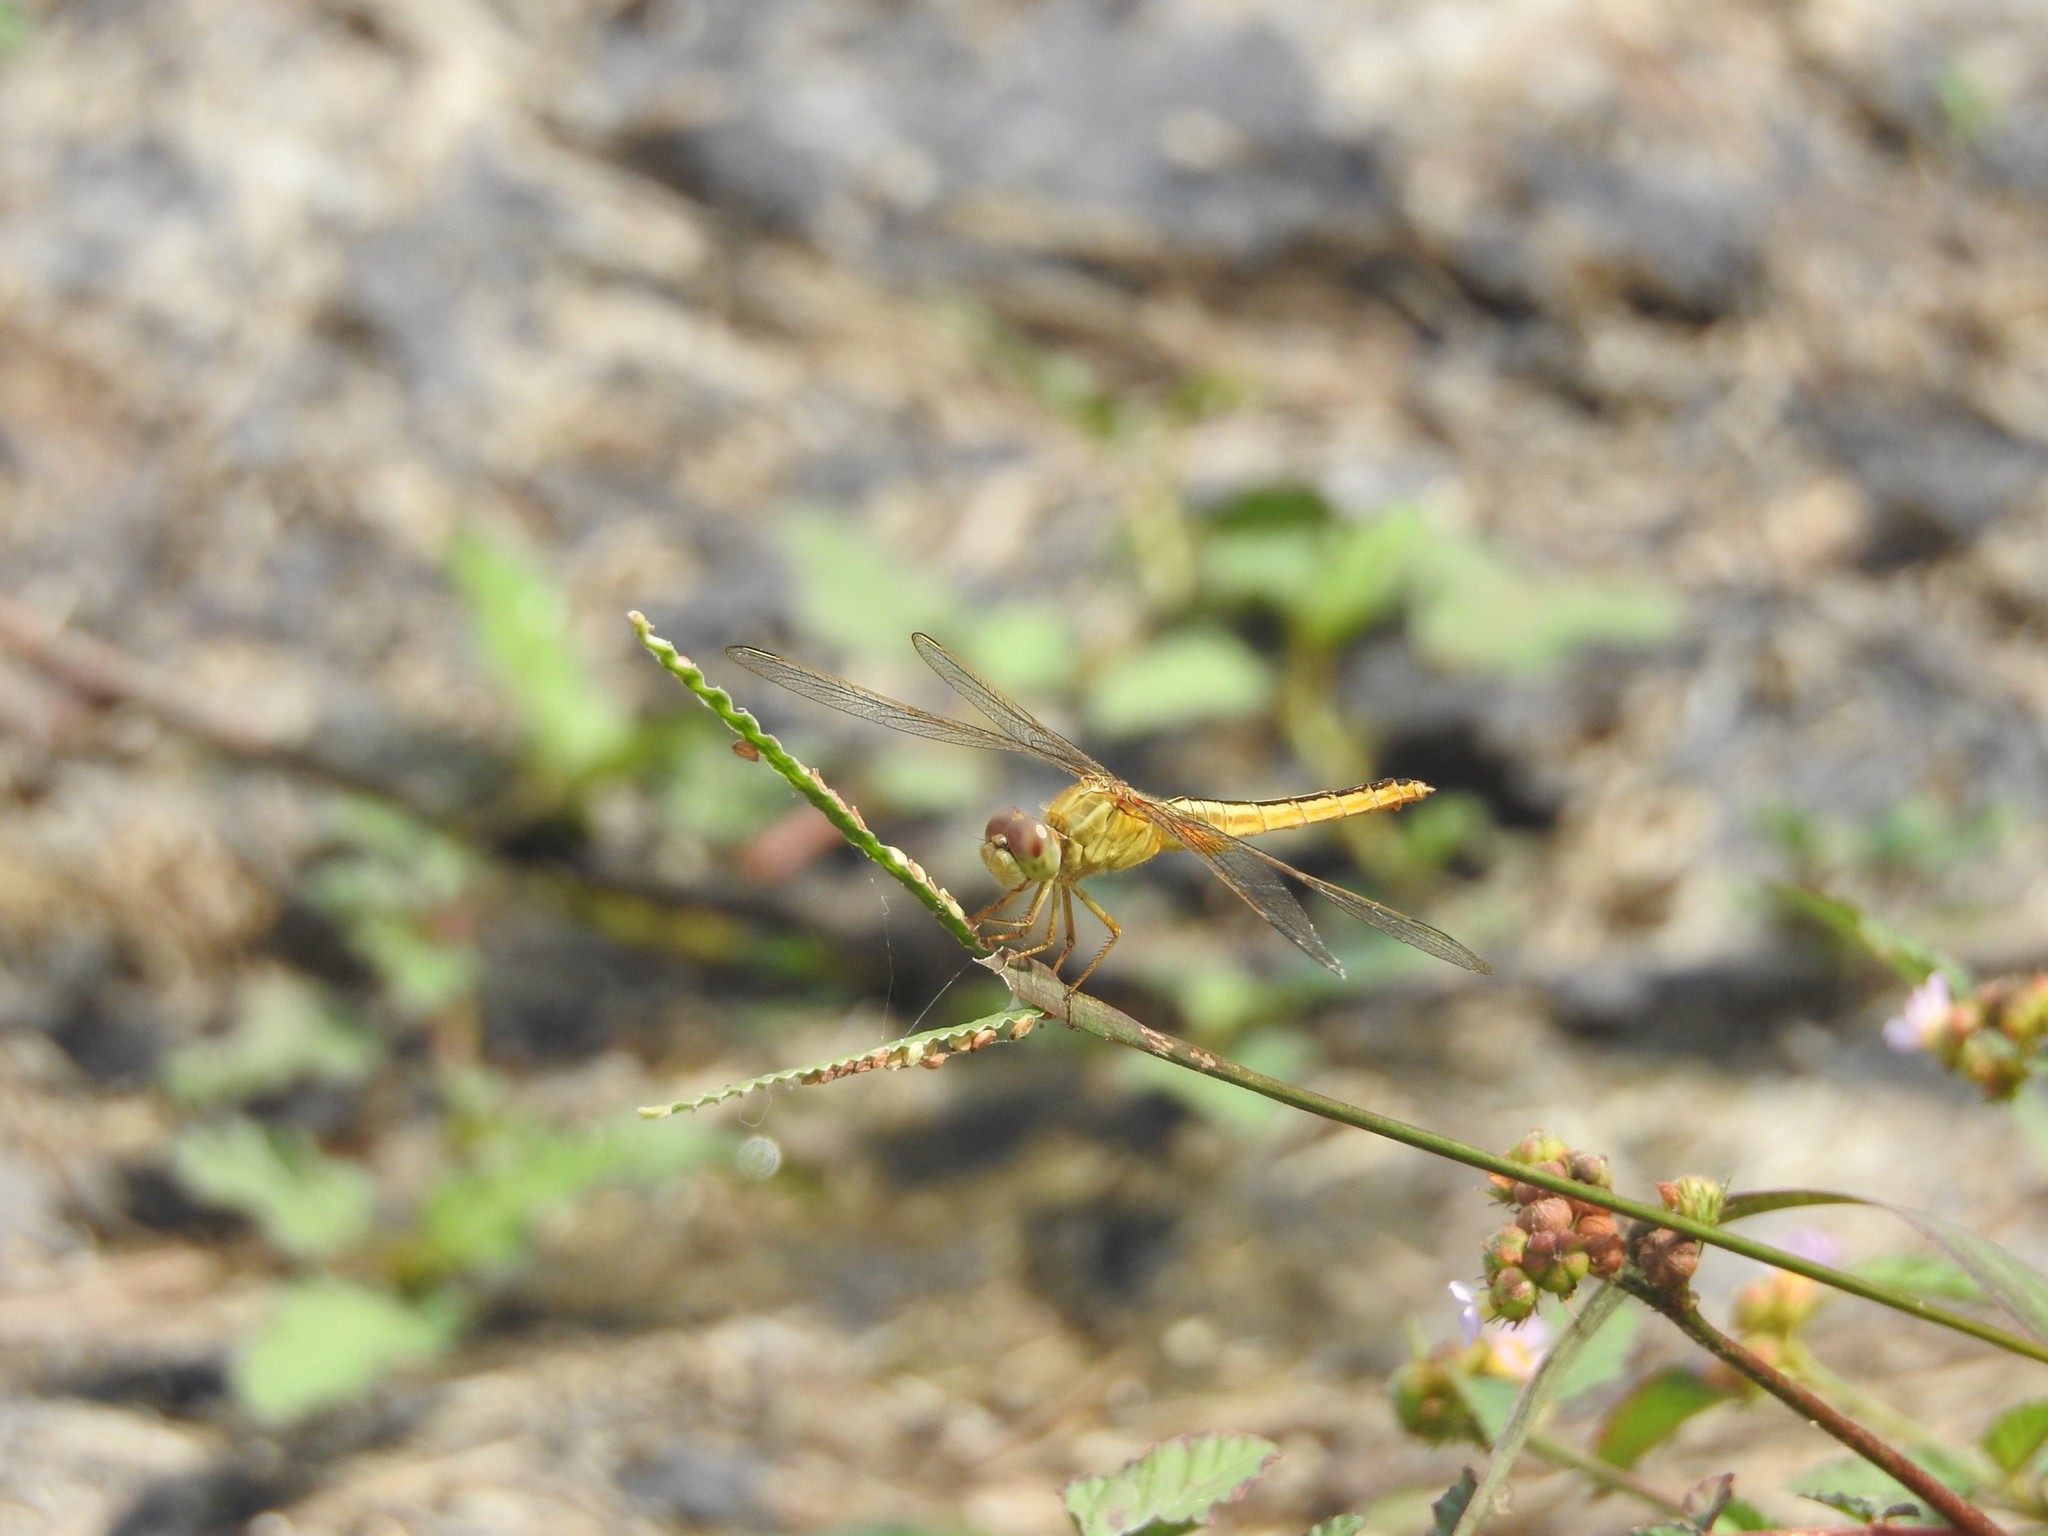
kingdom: Animalia
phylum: Arthropoda
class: Insecta
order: Odonata
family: Libellulidae
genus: Crocothemis
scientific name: Crocothemis servilia
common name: Scarlet skimmer
